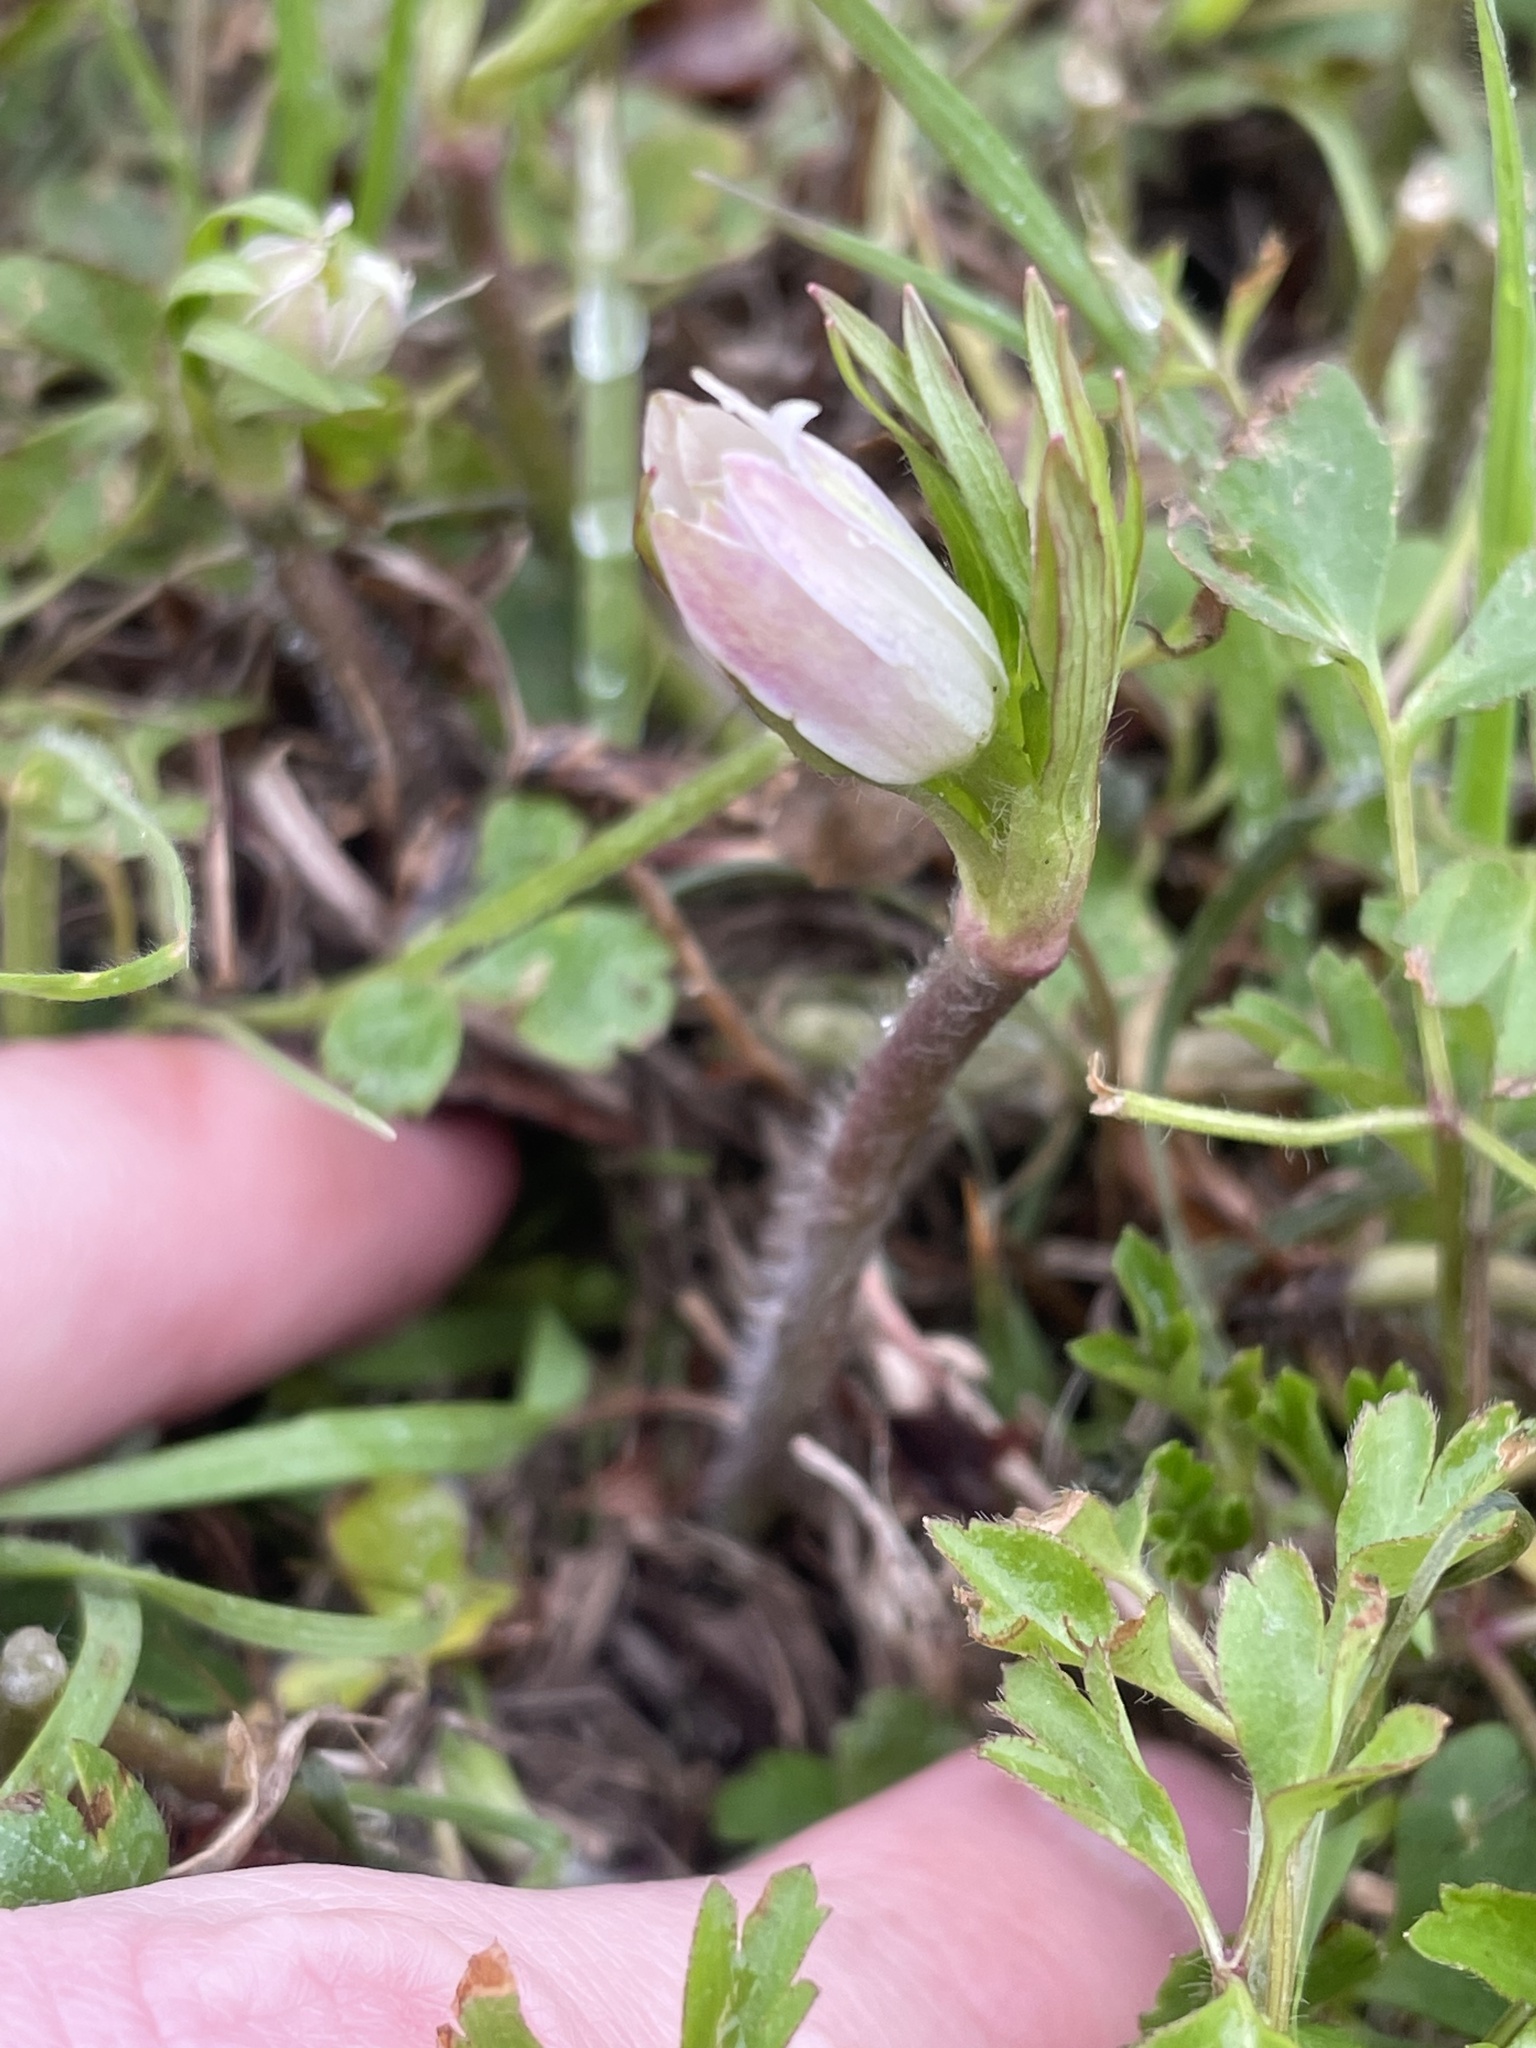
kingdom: Plantae
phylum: Tracheophyta
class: Magnoliopsida
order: Ranunculales
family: Ranunculaceae
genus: Anemone
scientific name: Anemone berlandieri
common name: Ten-petal anemone
